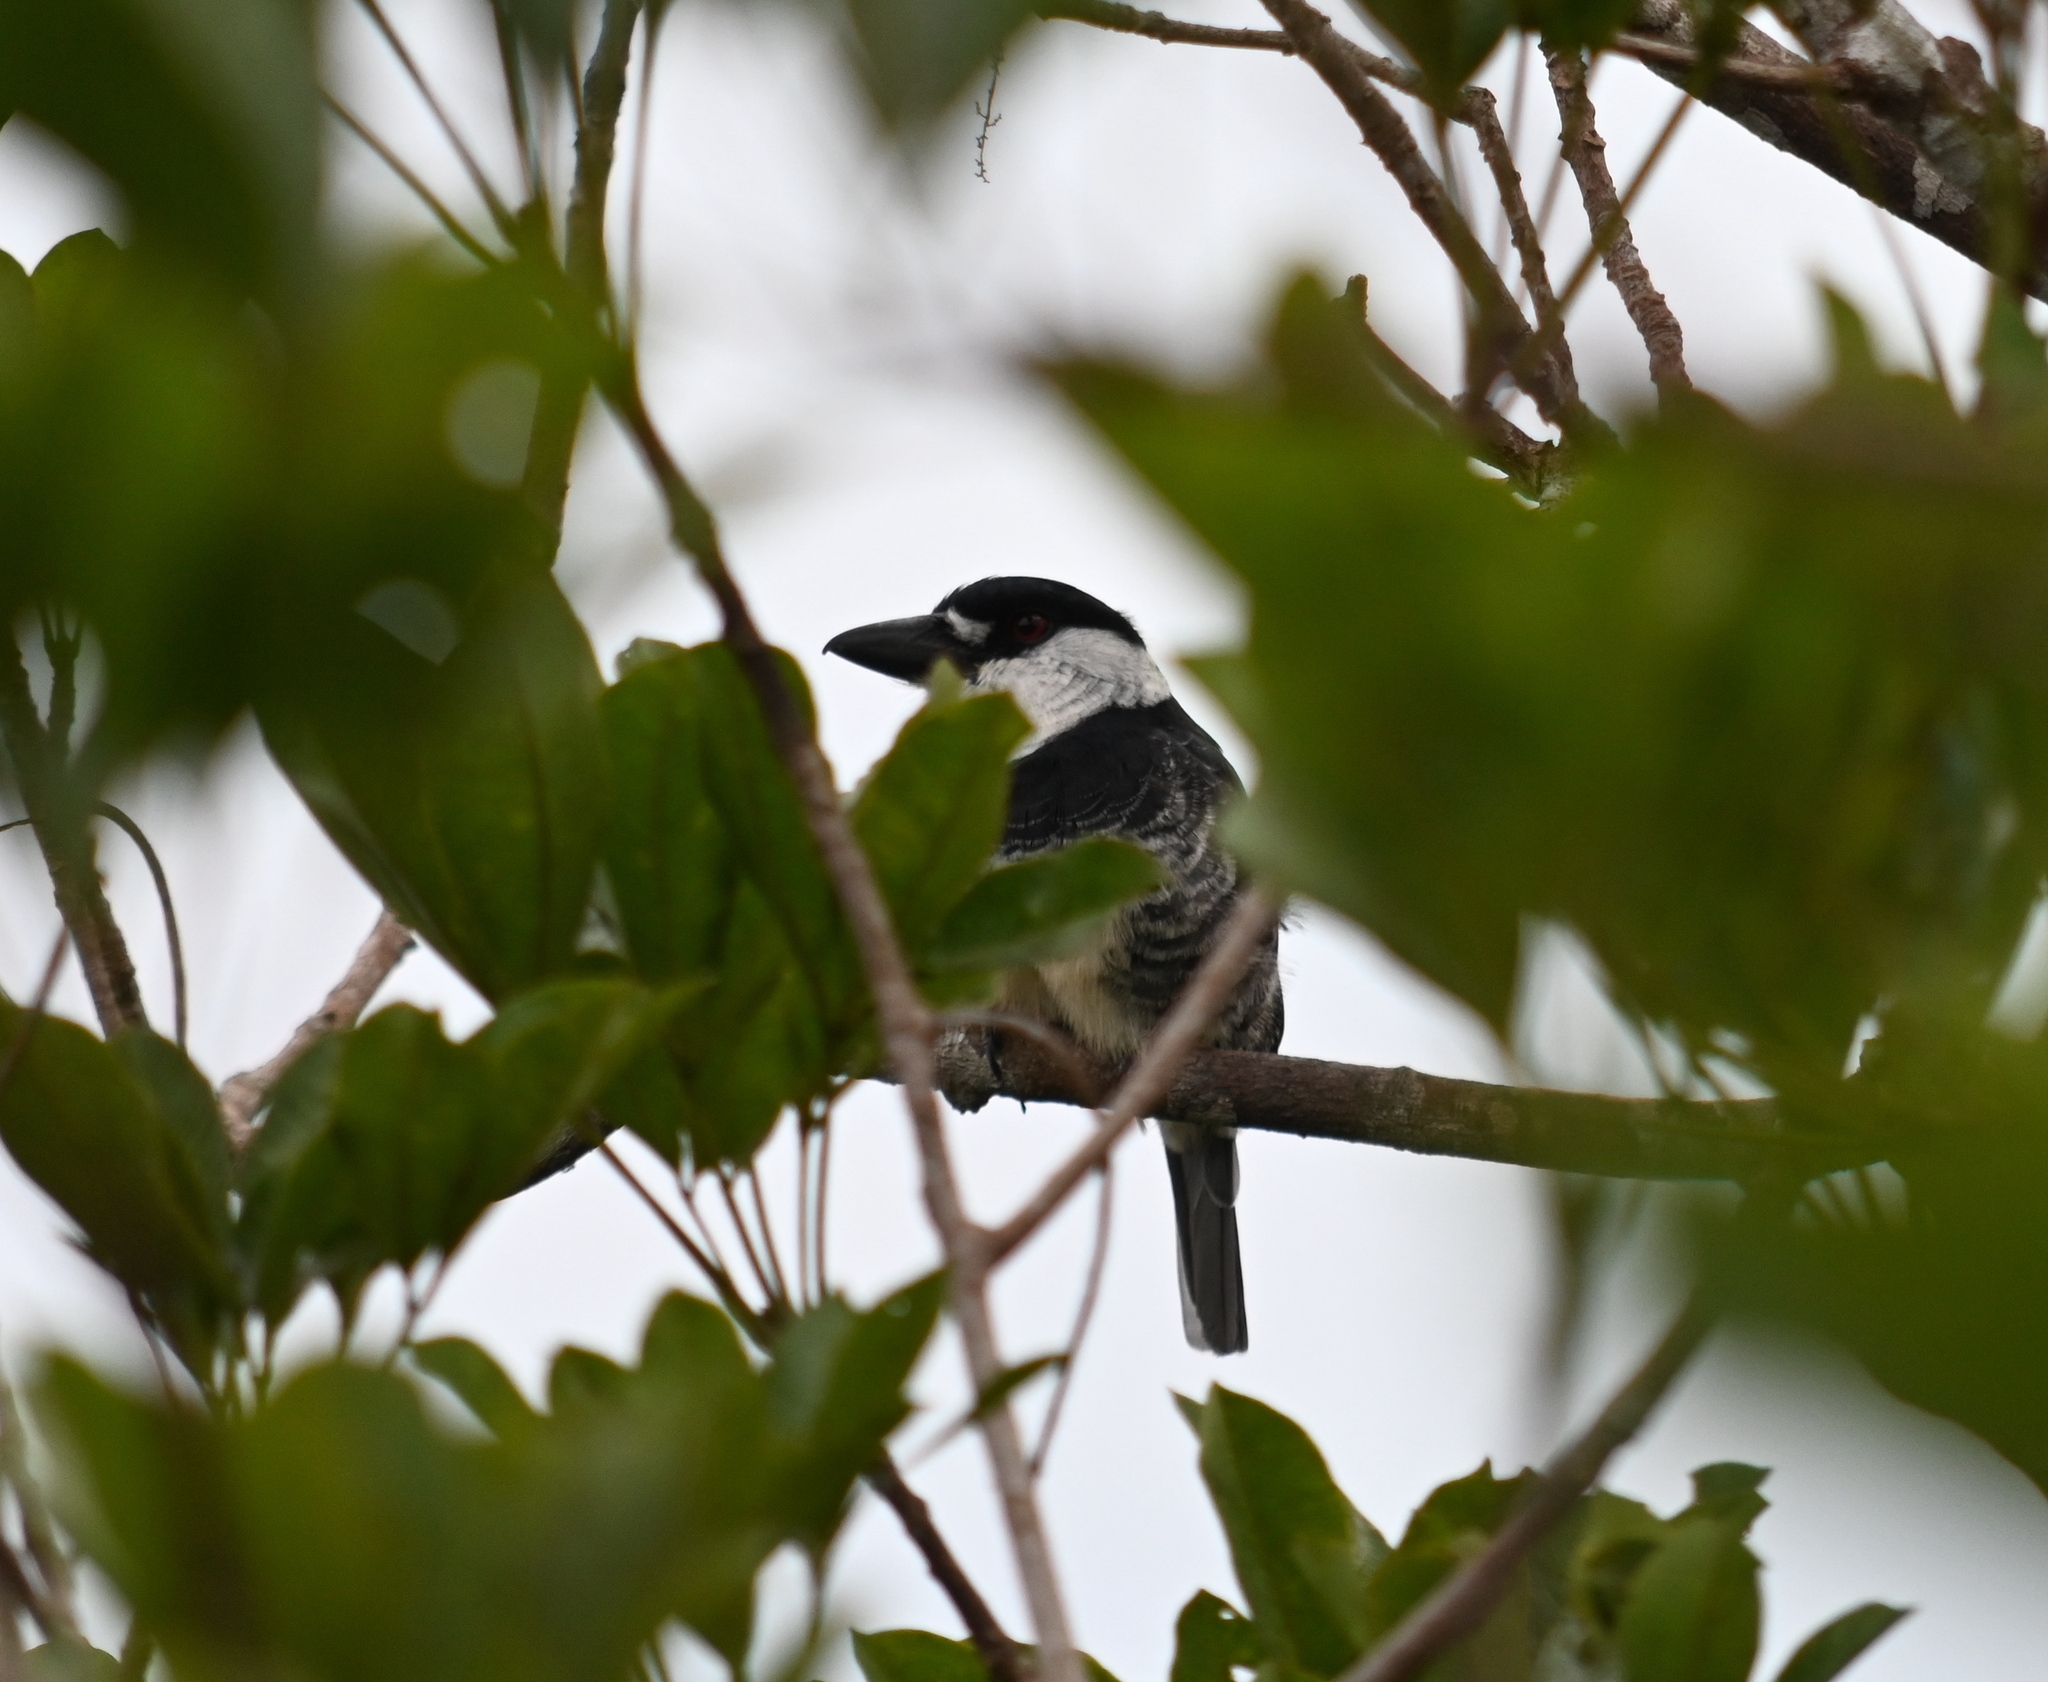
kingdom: Animalia
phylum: Chordata
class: Aves
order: Piciformes
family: Bucconidae
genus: Notharchus
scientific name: Notharchus macrorhynchos
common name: Guianan puffbird
